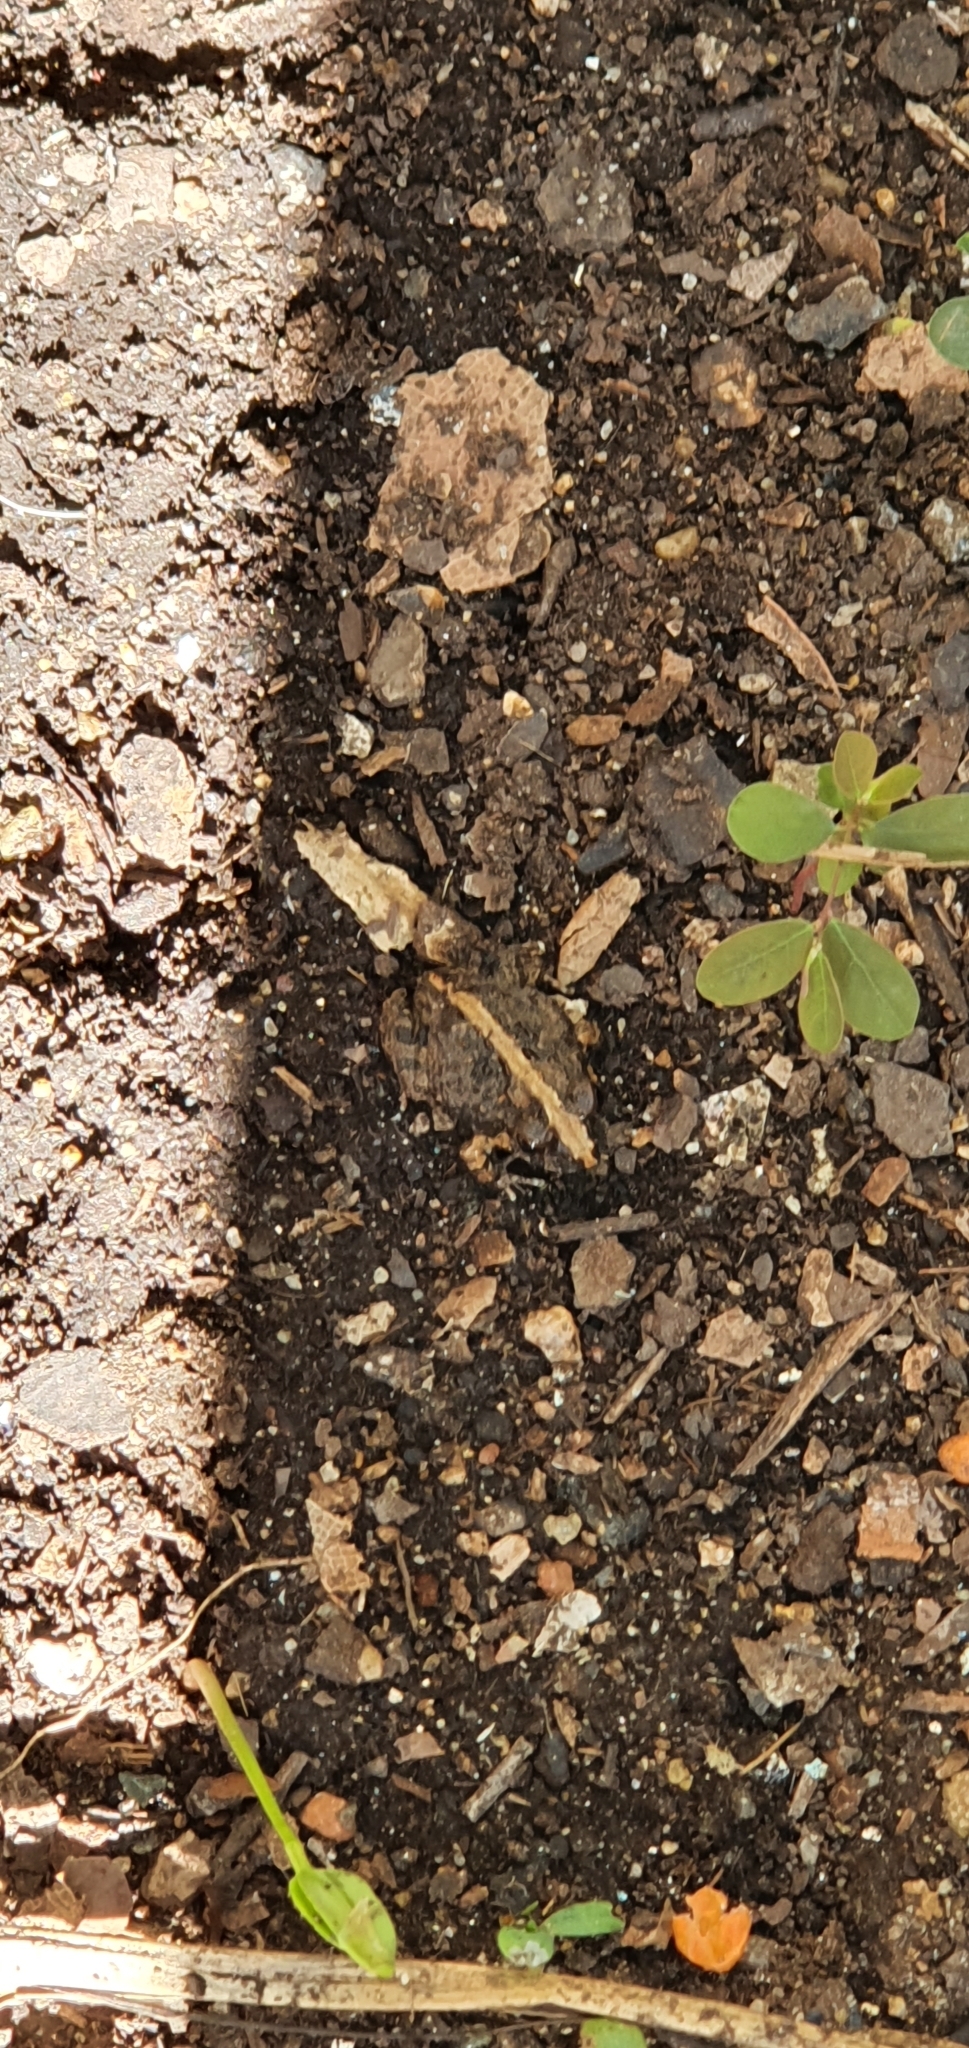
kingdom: Animalia
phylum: Chordata
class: Amphibia
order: Anura
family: Limnodynastidae
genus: Platyplectrum
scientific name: Platyplectrum ornatum
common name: Ornate burrowing frog
